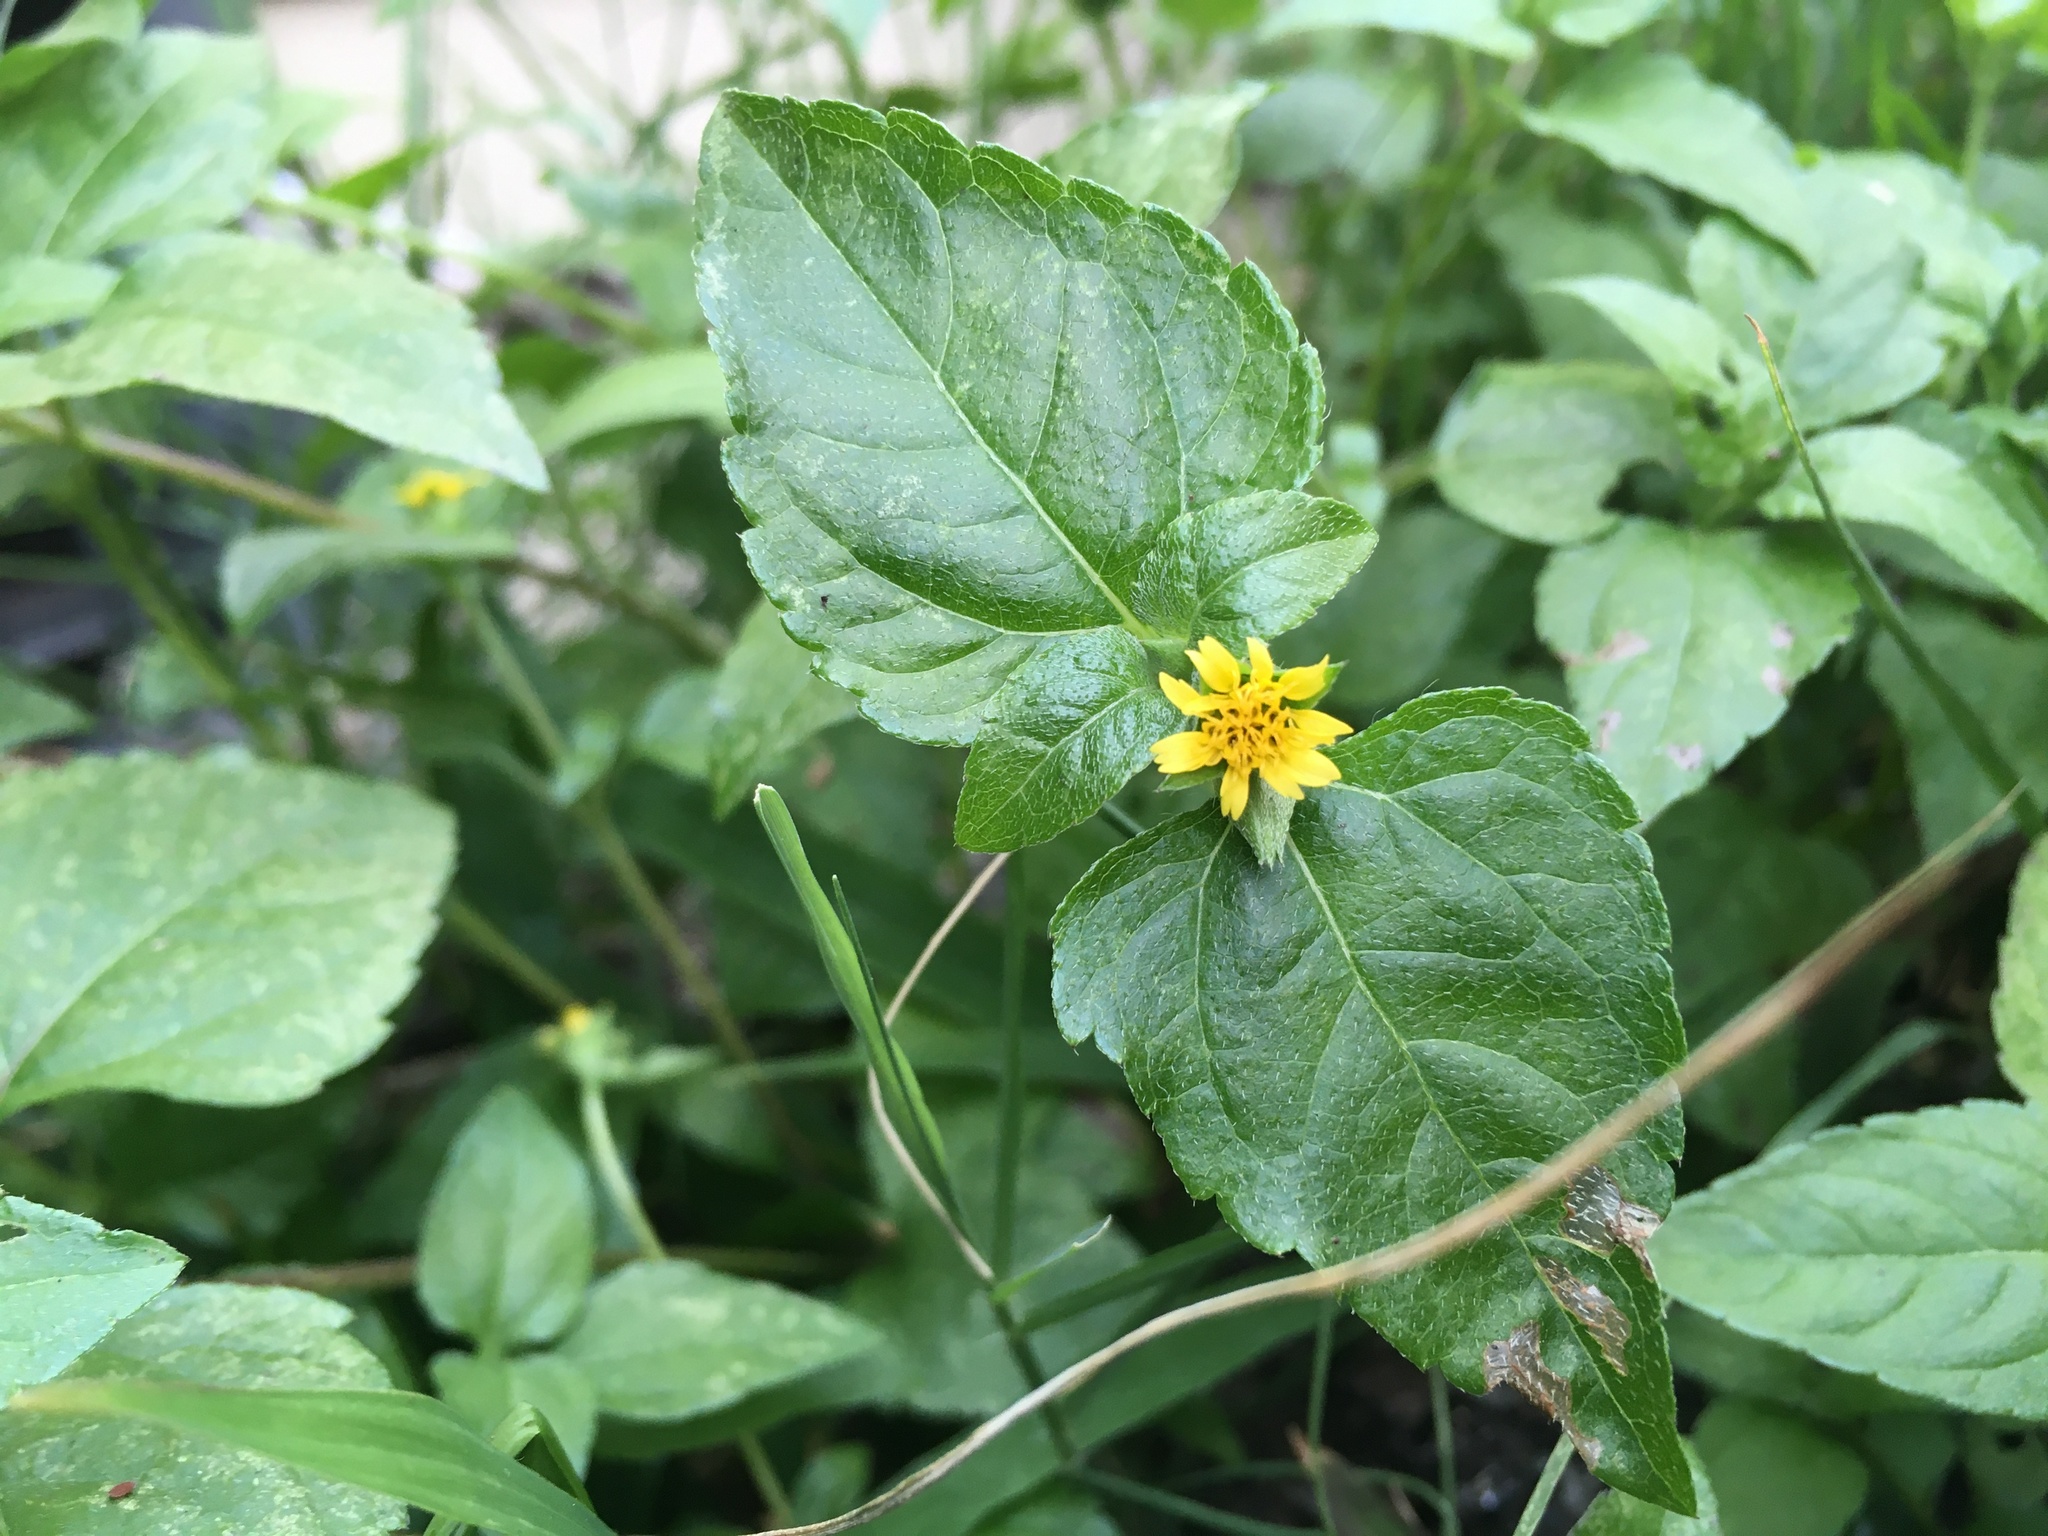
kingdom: Plantae
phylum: Tracheophyta
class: Magnoliopsida
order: Asterales
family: Asteraceae
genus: Calyptocarpus
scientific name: Calyptocarpus vialis
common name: Straggler daisy
